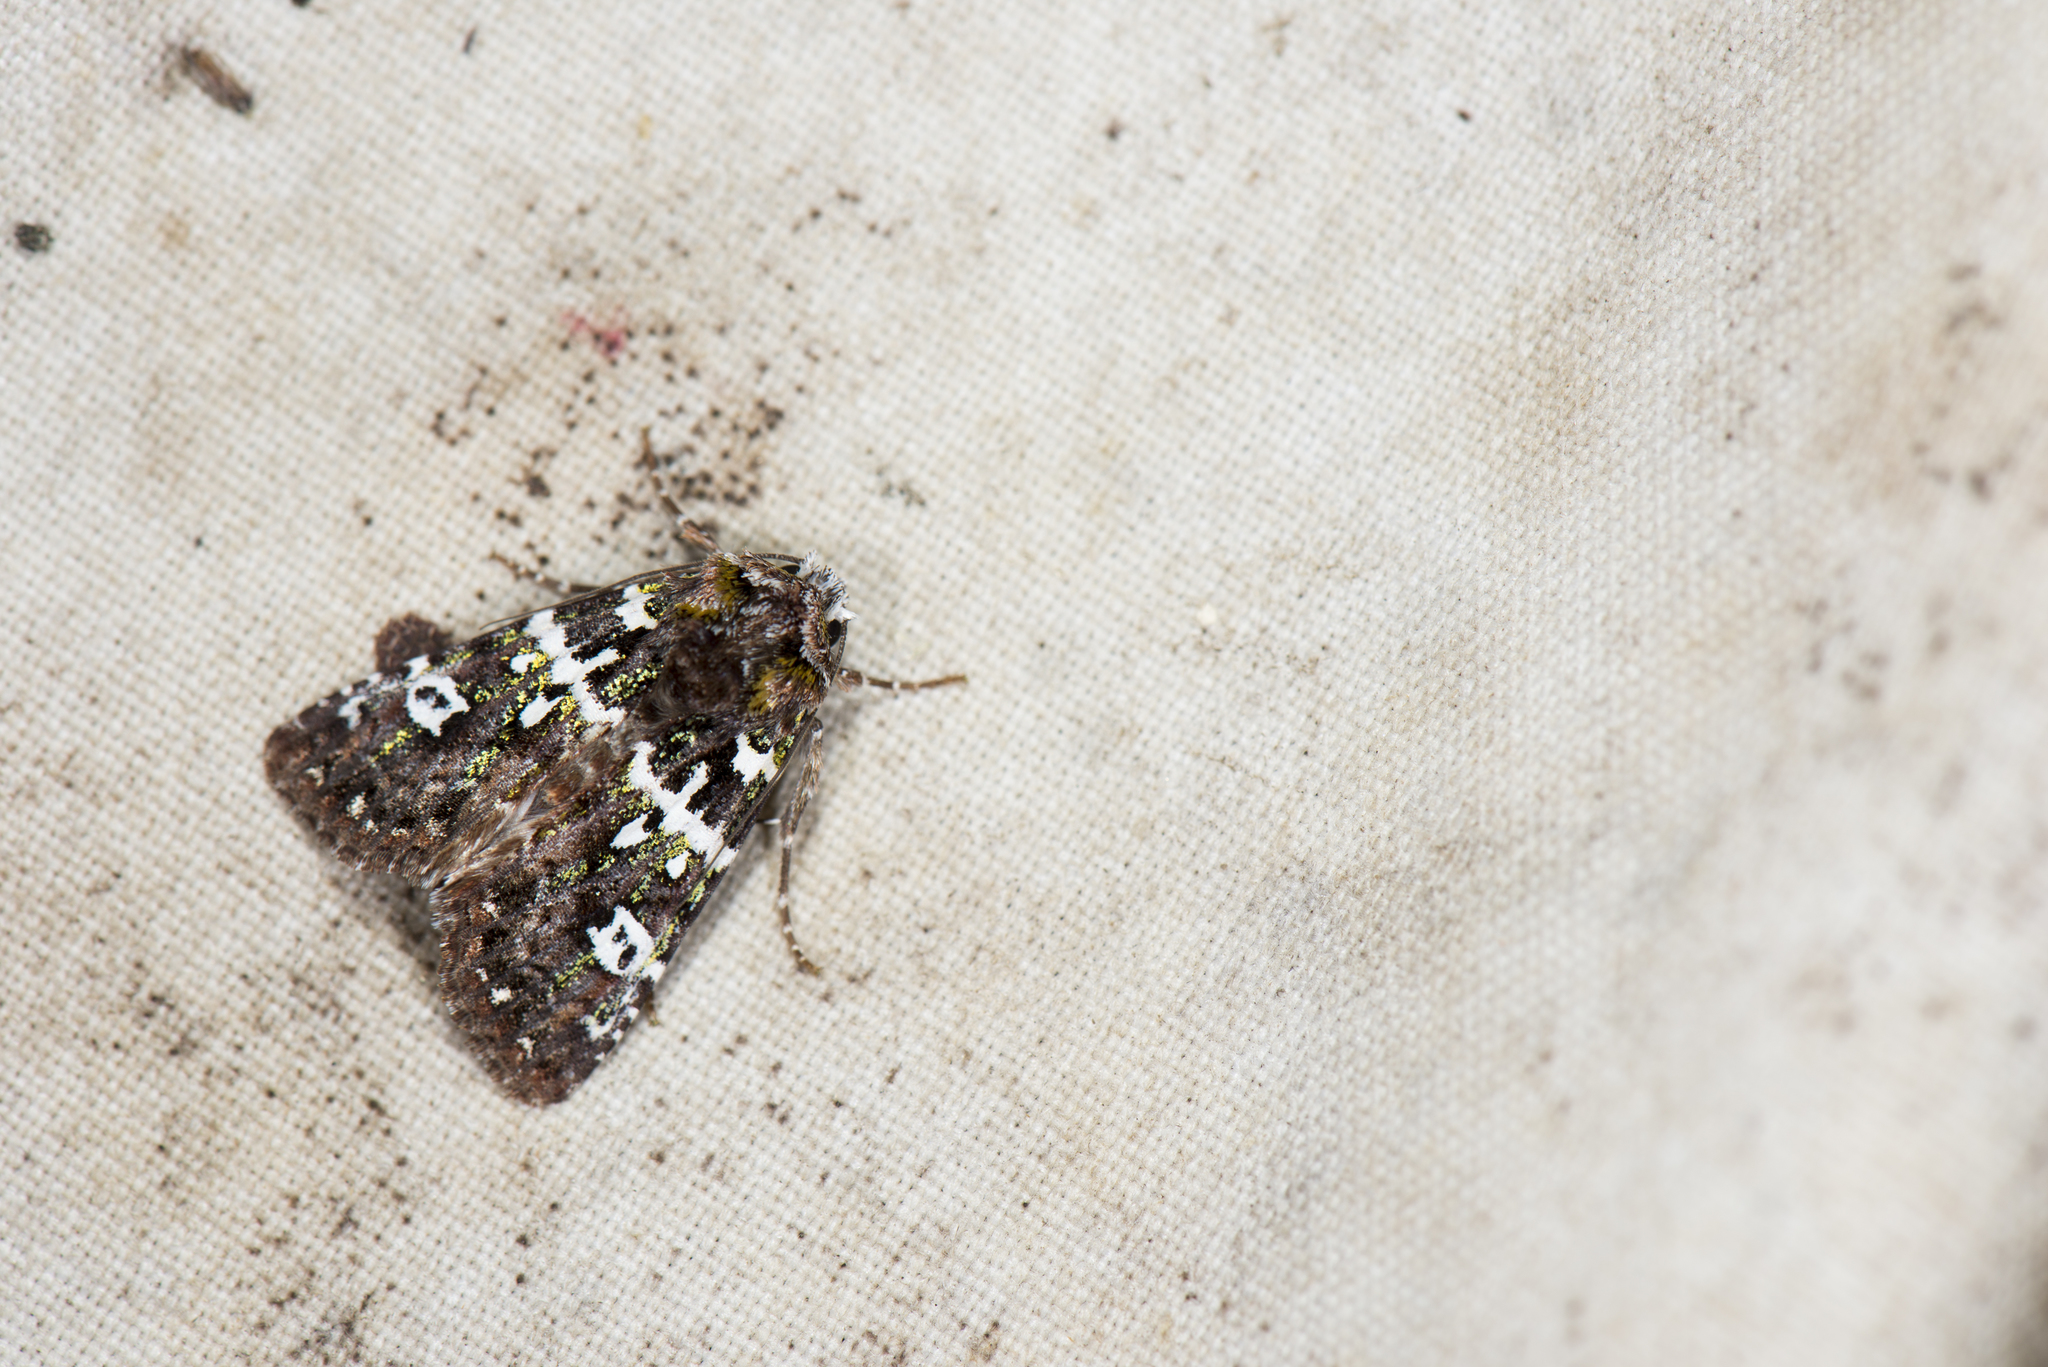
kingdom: Animalia
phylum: Arthropoda
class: Insecta
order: Lepidoptera
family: Noctuidae
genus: Karana
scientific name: Karana gemmifera
